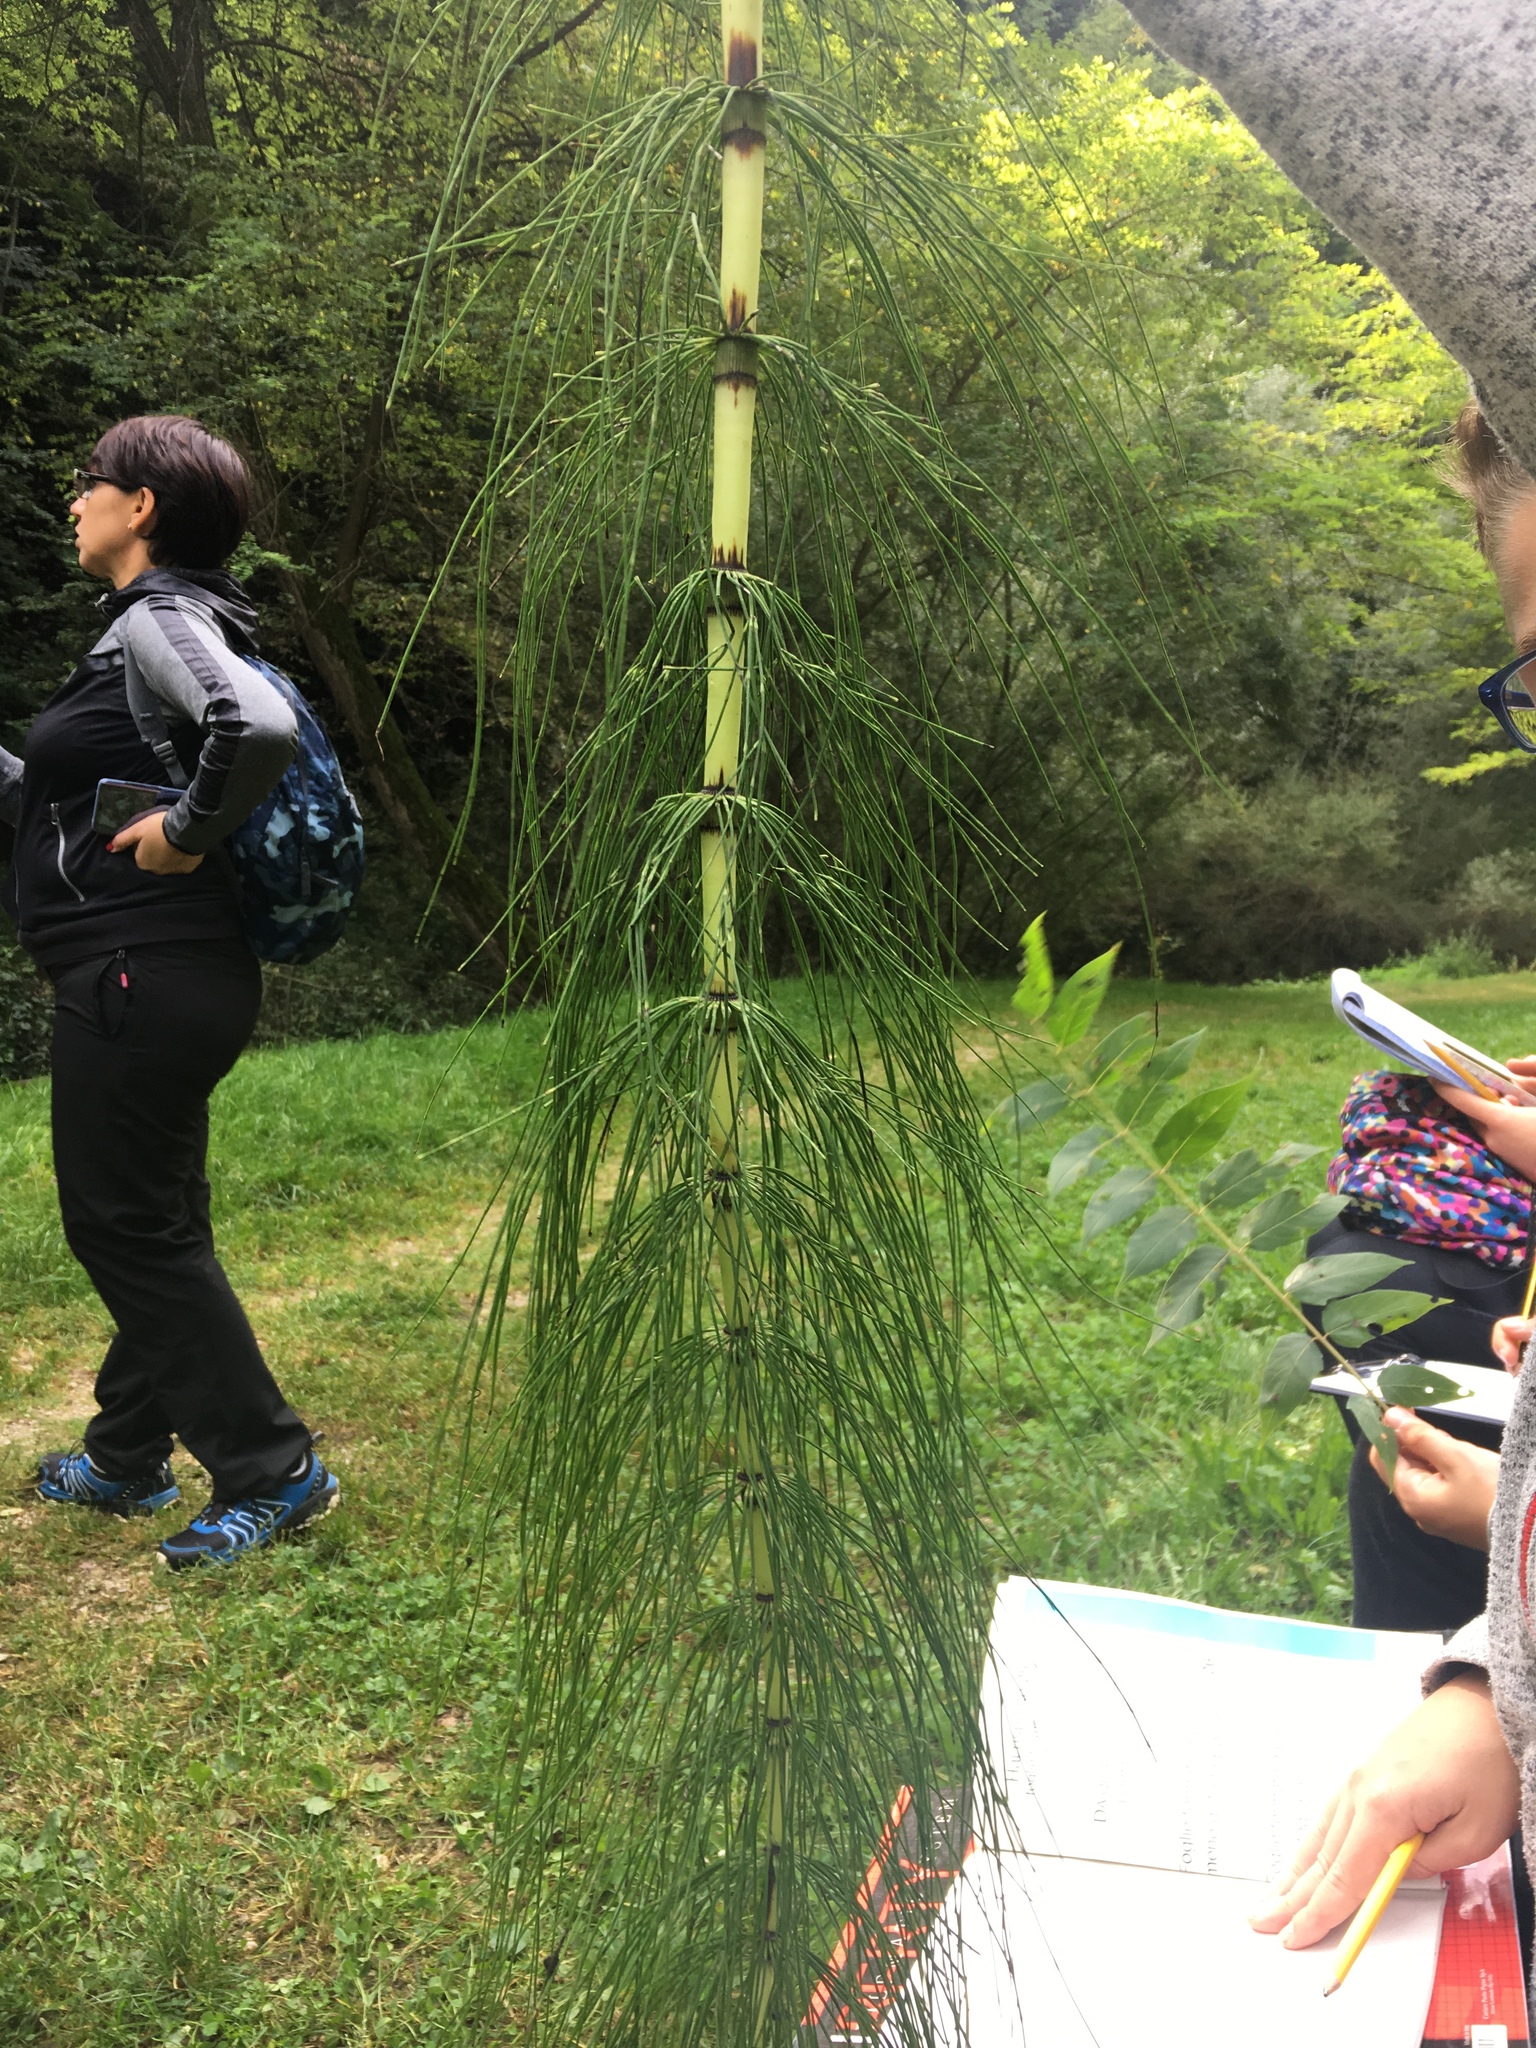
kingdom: Plantae
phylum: Tracheophyta
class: Polypodiopsida
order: Equisetales
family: Equisetaceae
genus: Equisetum
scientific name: Equisetum telmateia
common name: Great horsetail
